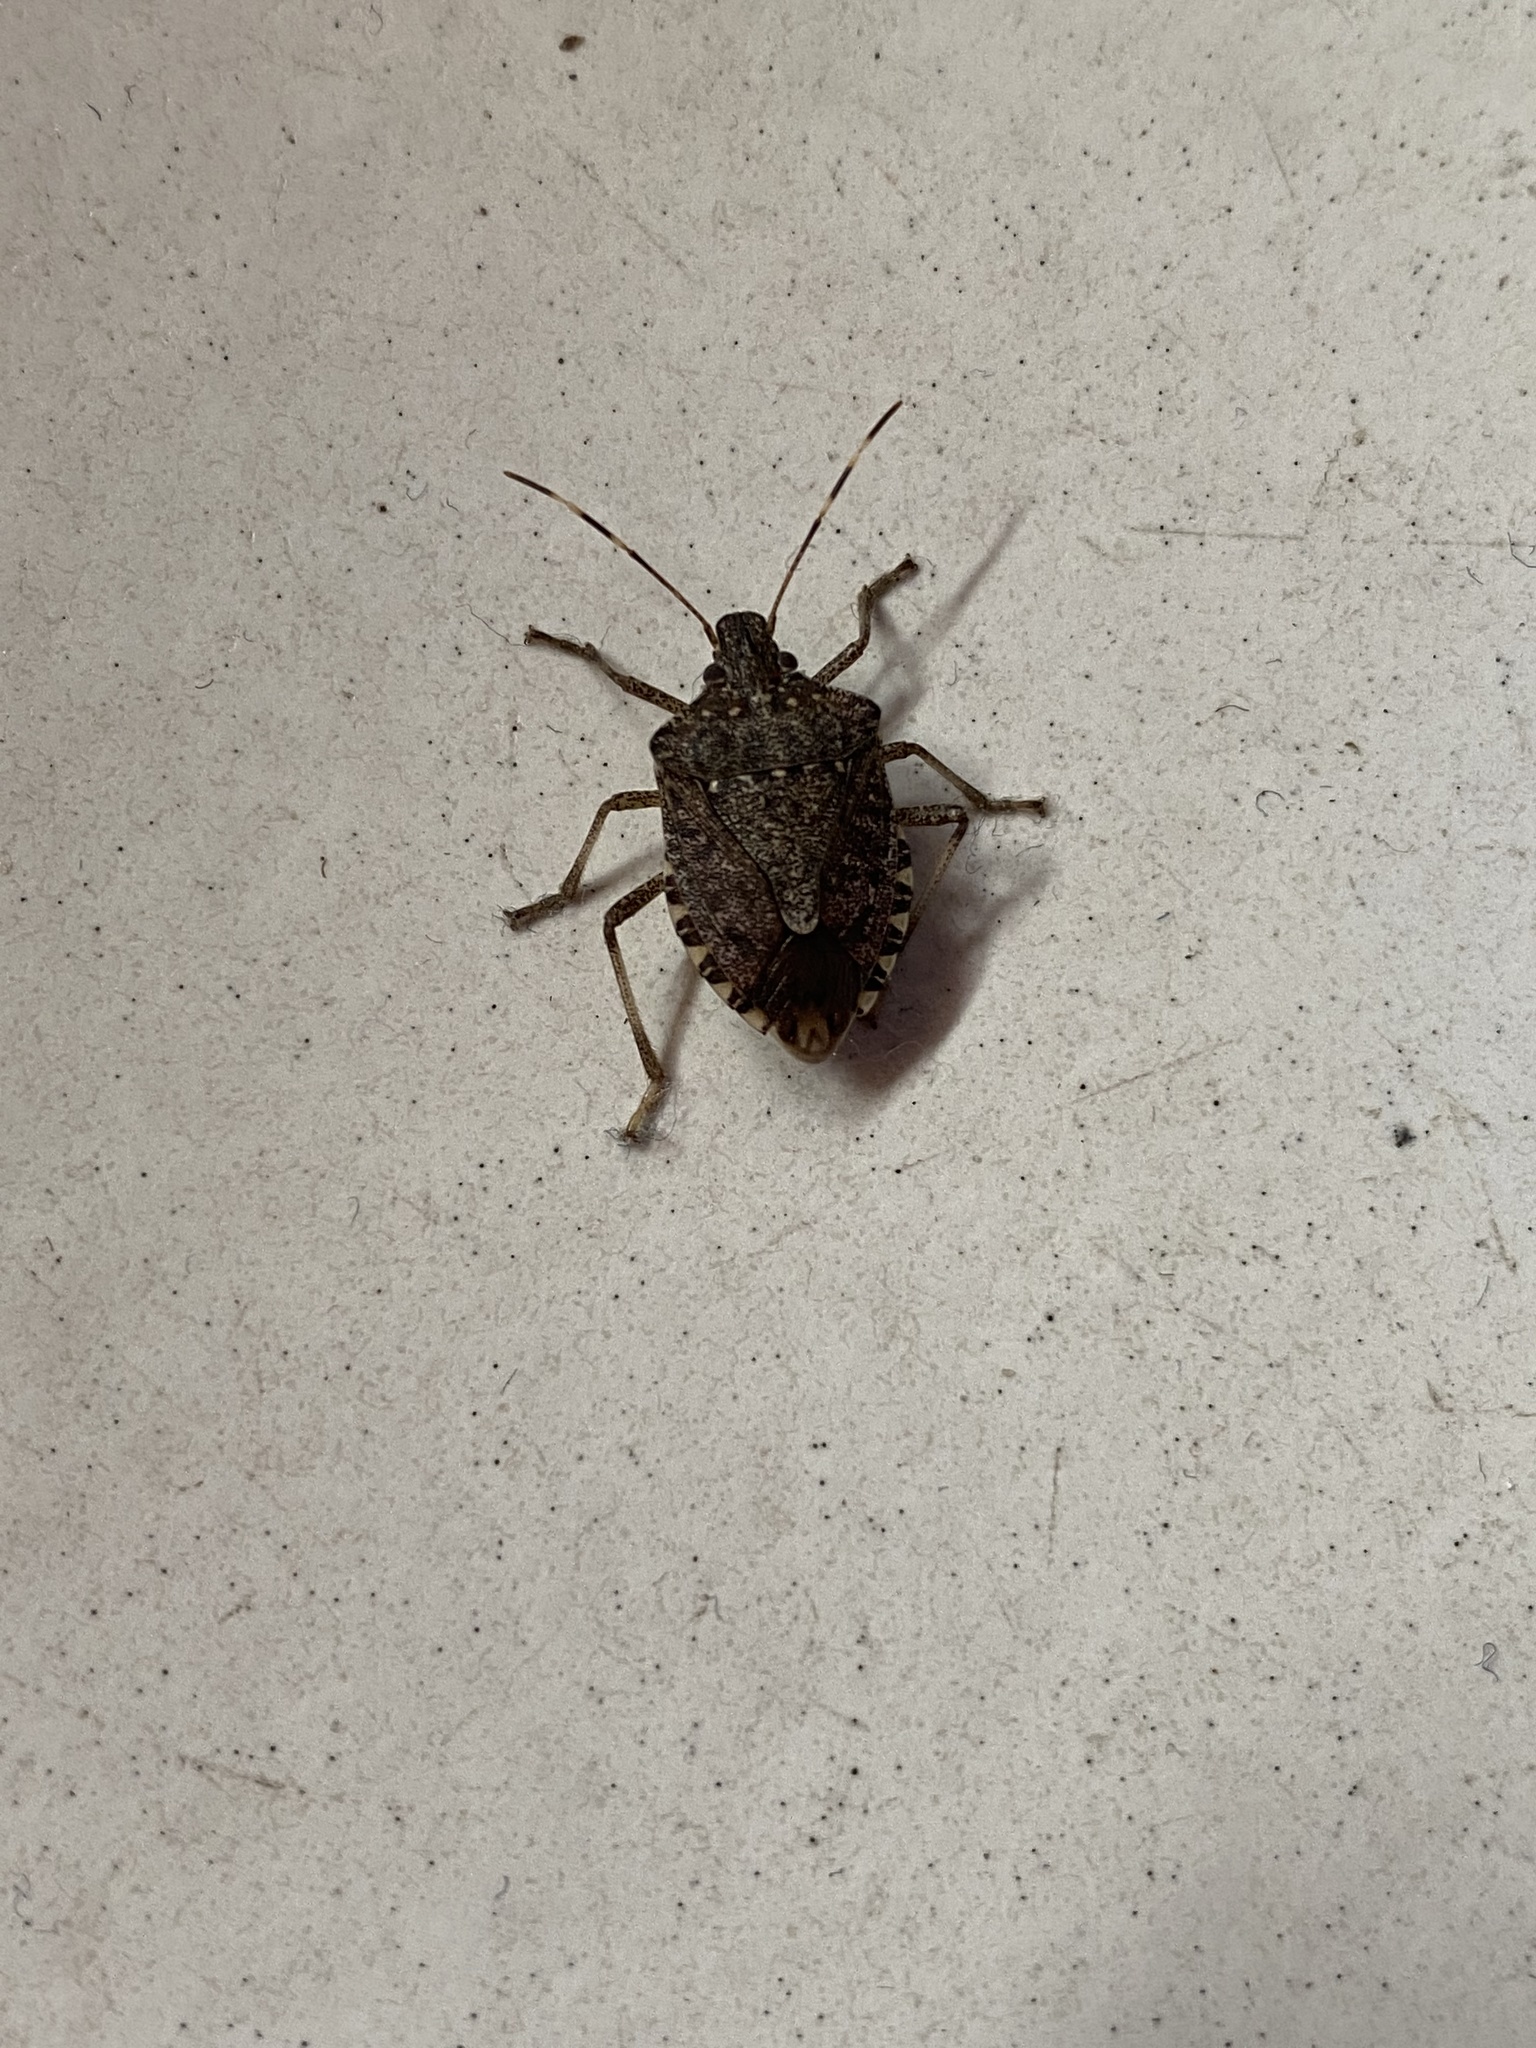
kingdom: Animalia
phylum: Arthropoda
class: Insecta
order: Hemiptera
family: Pentatomidae
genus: Halyomorpha
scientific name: Halyomorpha halys
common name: Brown marmorated stink bug
